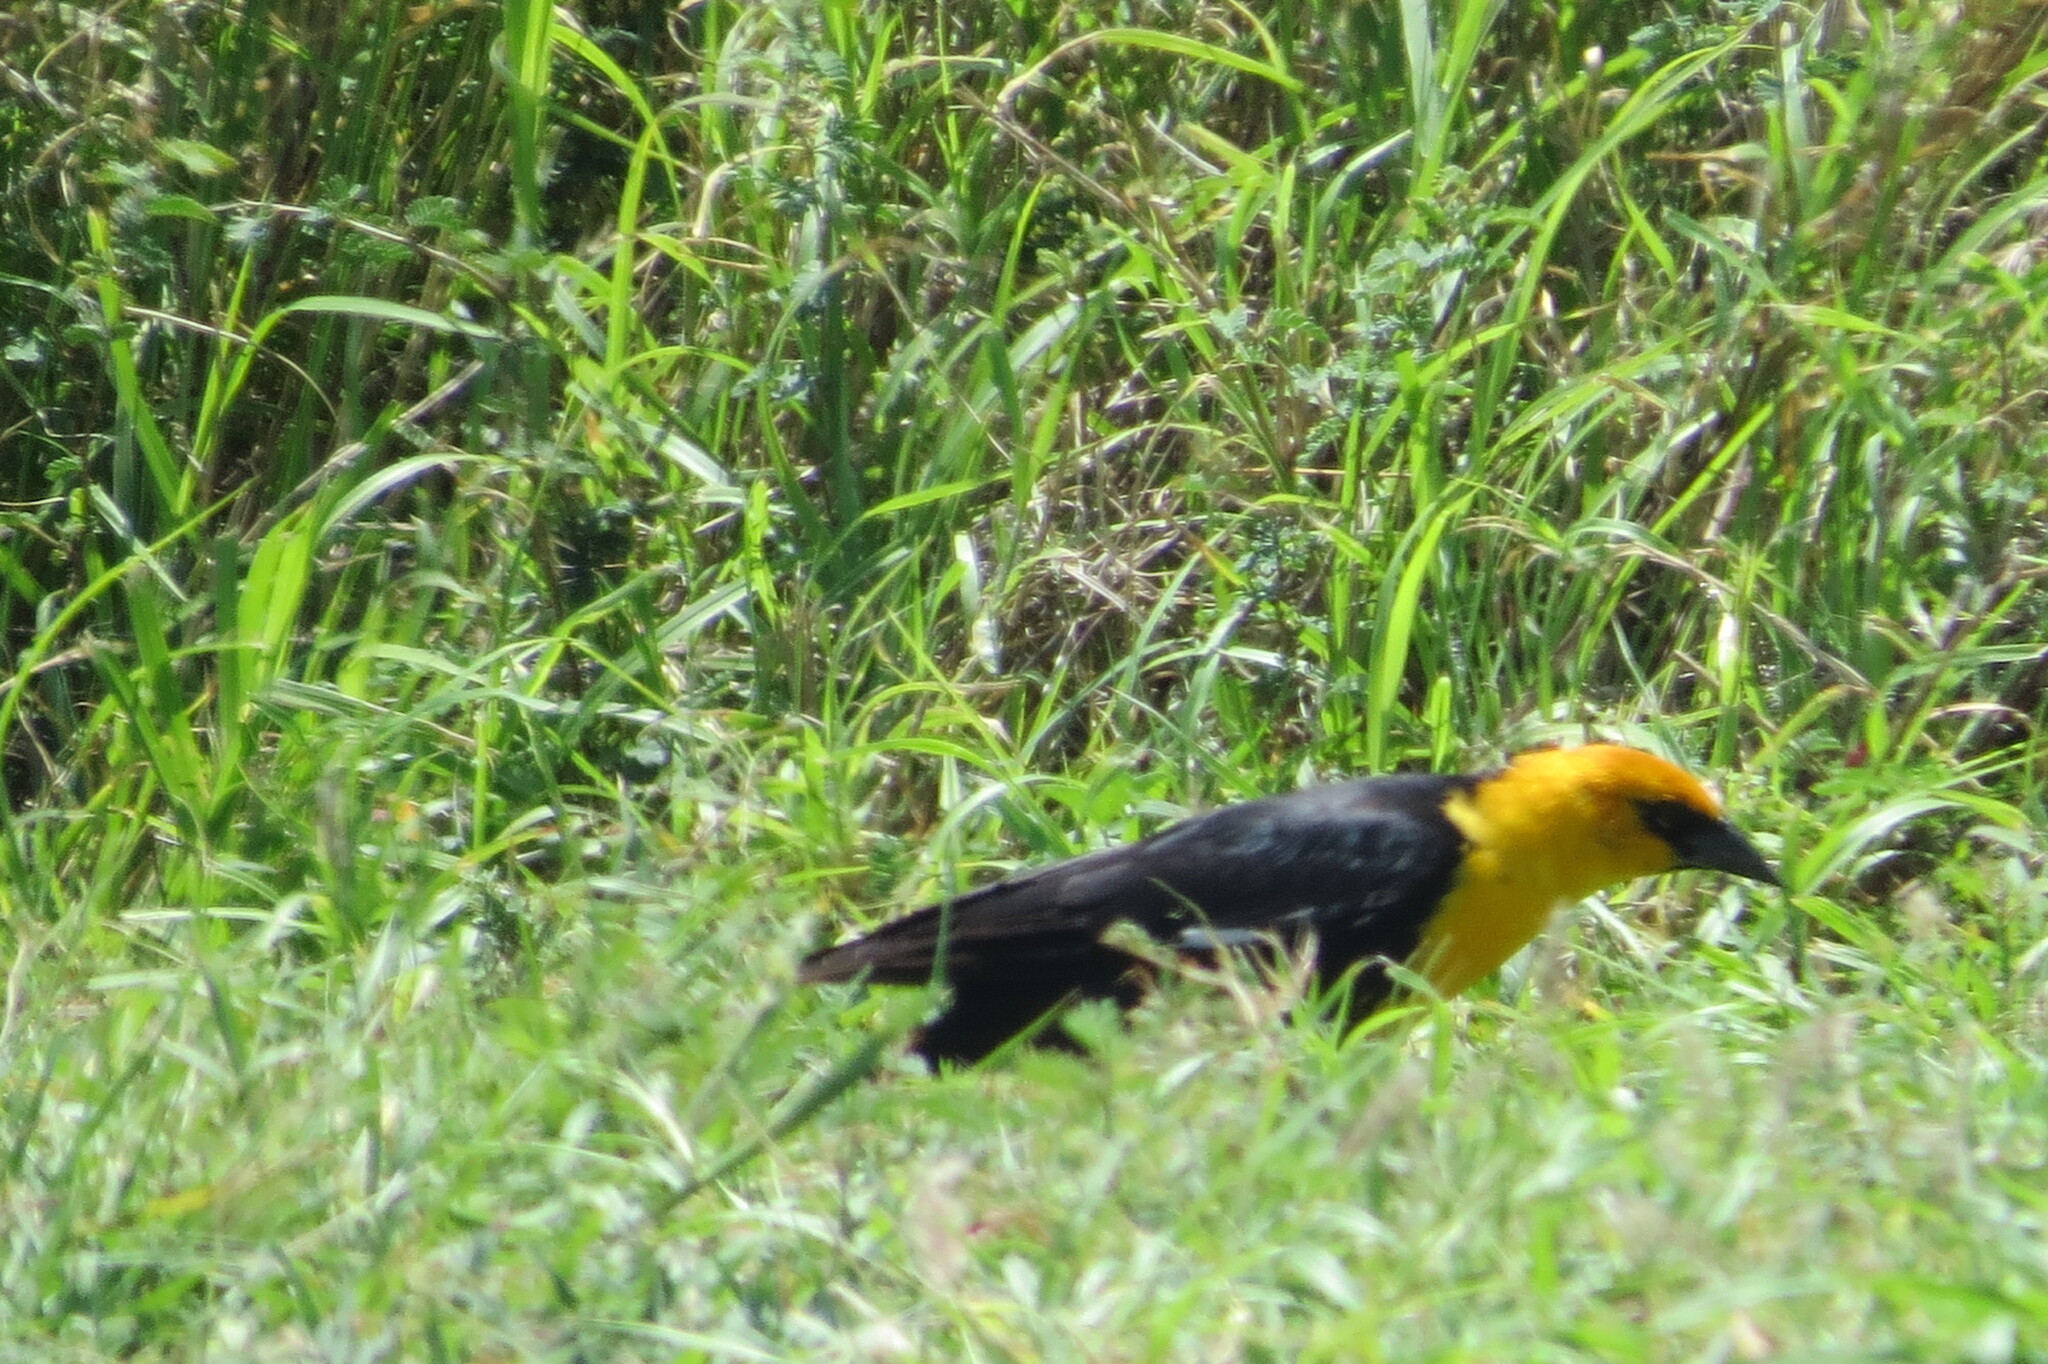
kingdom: Animalia
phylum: Chordata
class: Aves
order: Passeriformes
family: Icteridae
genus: Xanthocephalus
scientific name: Xanthocephalus xanthocephalus
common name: Yellow-headed blackbird
